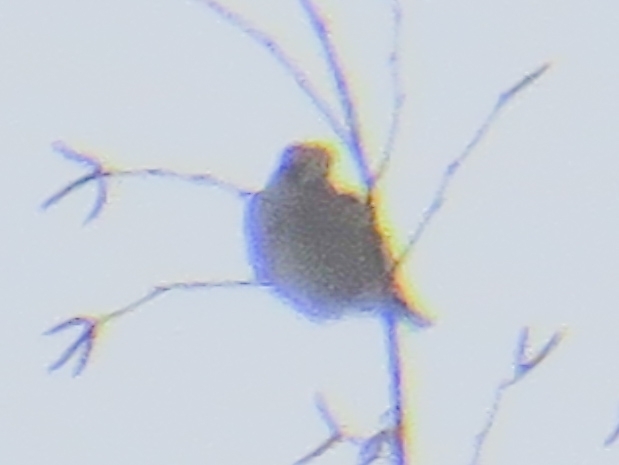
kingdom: Animalia
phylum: Chordata
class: Aves
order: Passeriformes
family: Fringillidae
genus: Coccothraustes
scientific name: Coccothraustes coccothraustes
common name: Hawfinch
